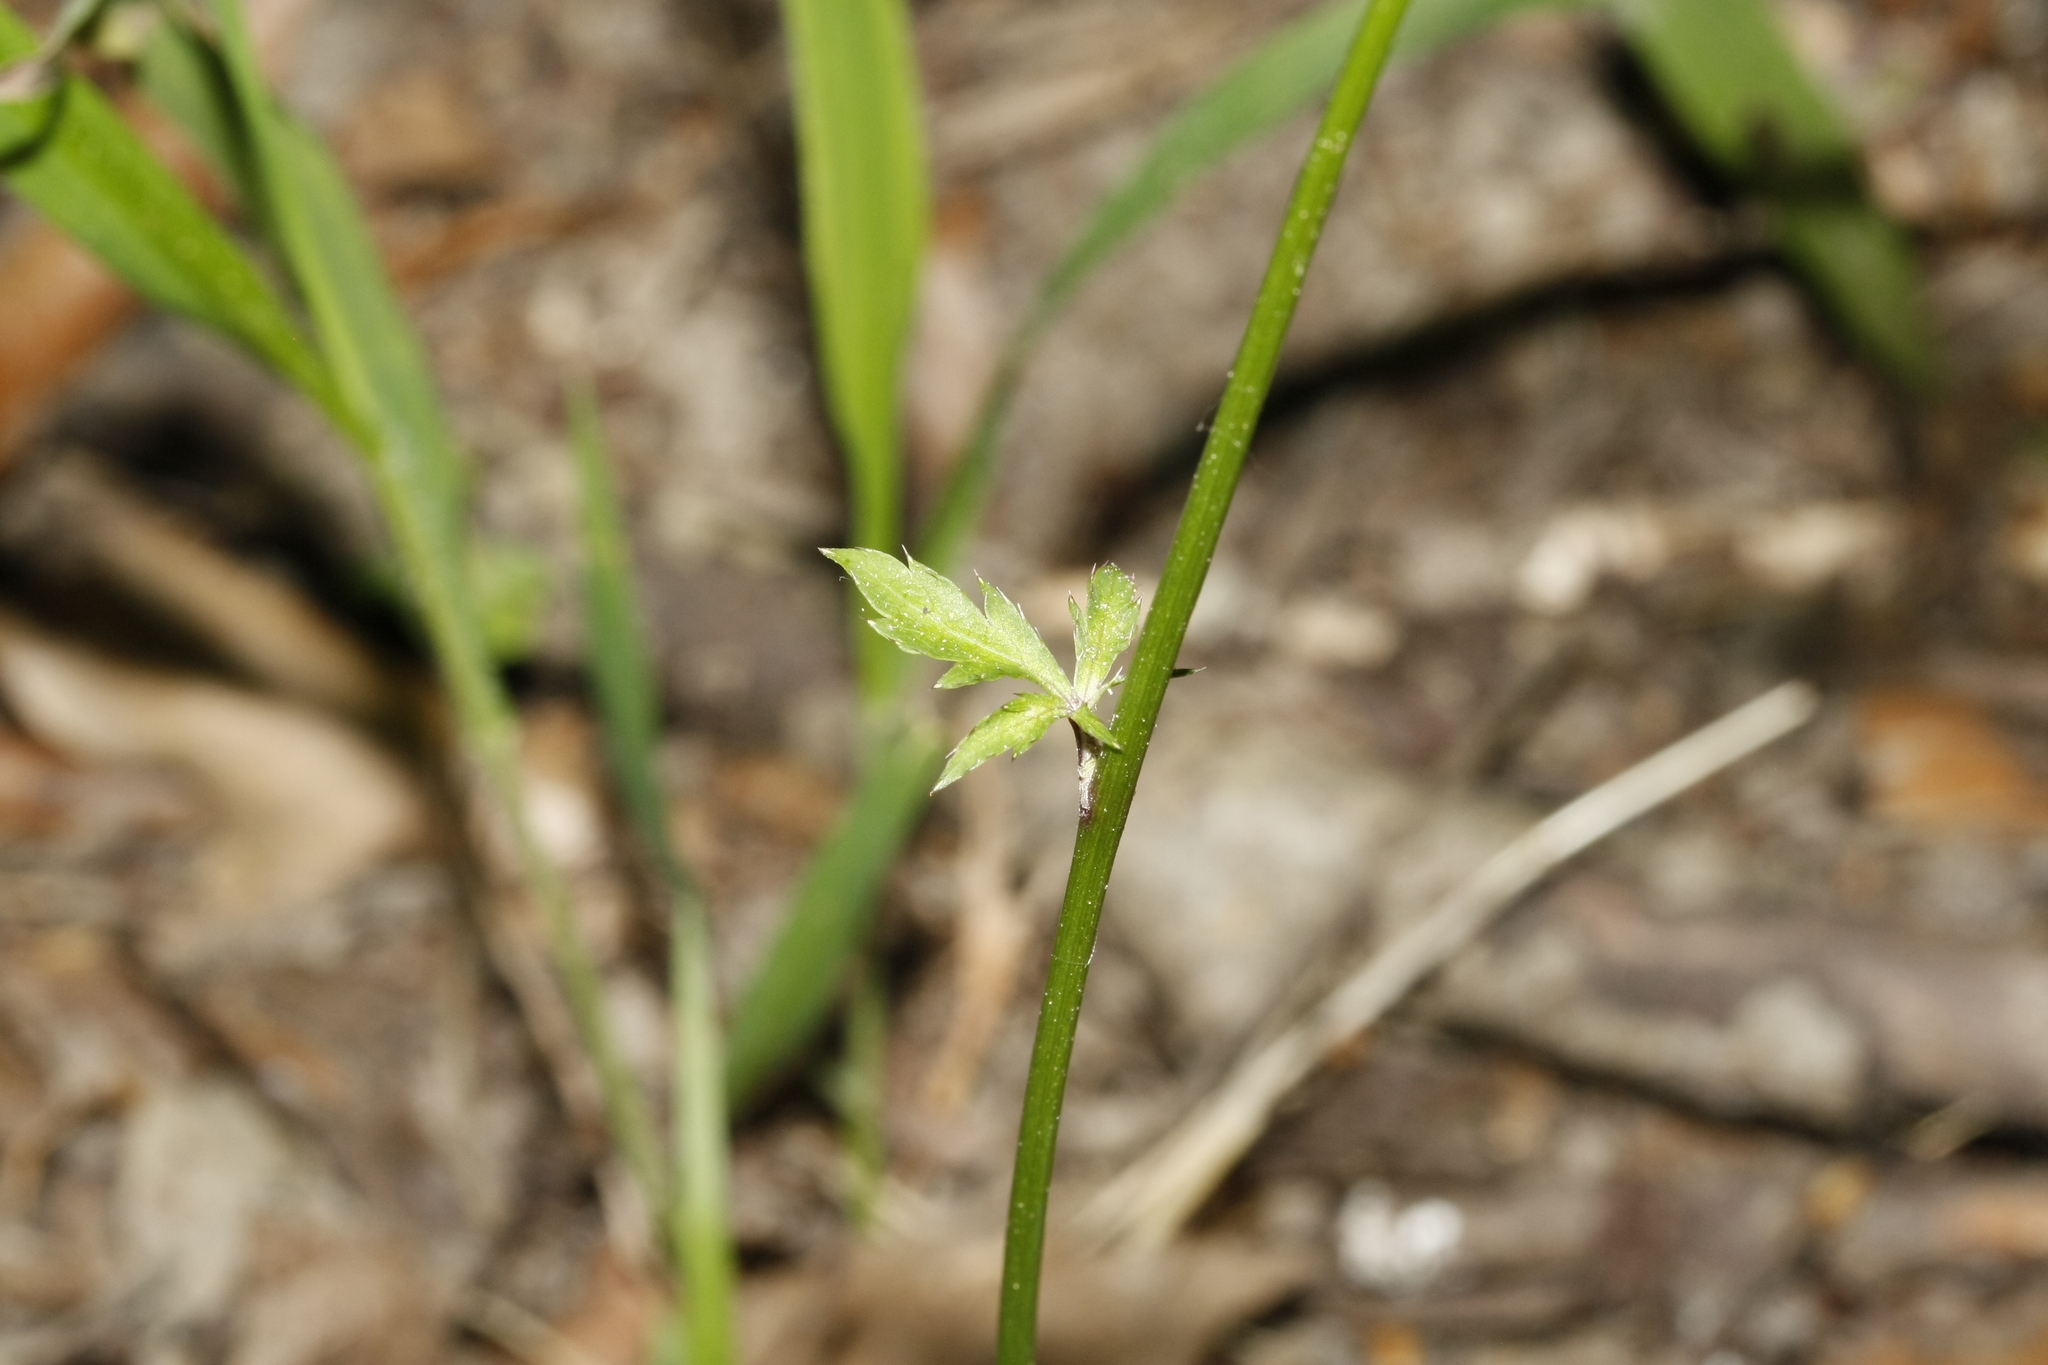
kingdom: Plantae
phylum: Tracheophyta
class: Magnoliopsida
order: Apiales
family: Apiaceae
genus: Sanicula
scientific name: Sanicula europaea
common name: Sanicle
